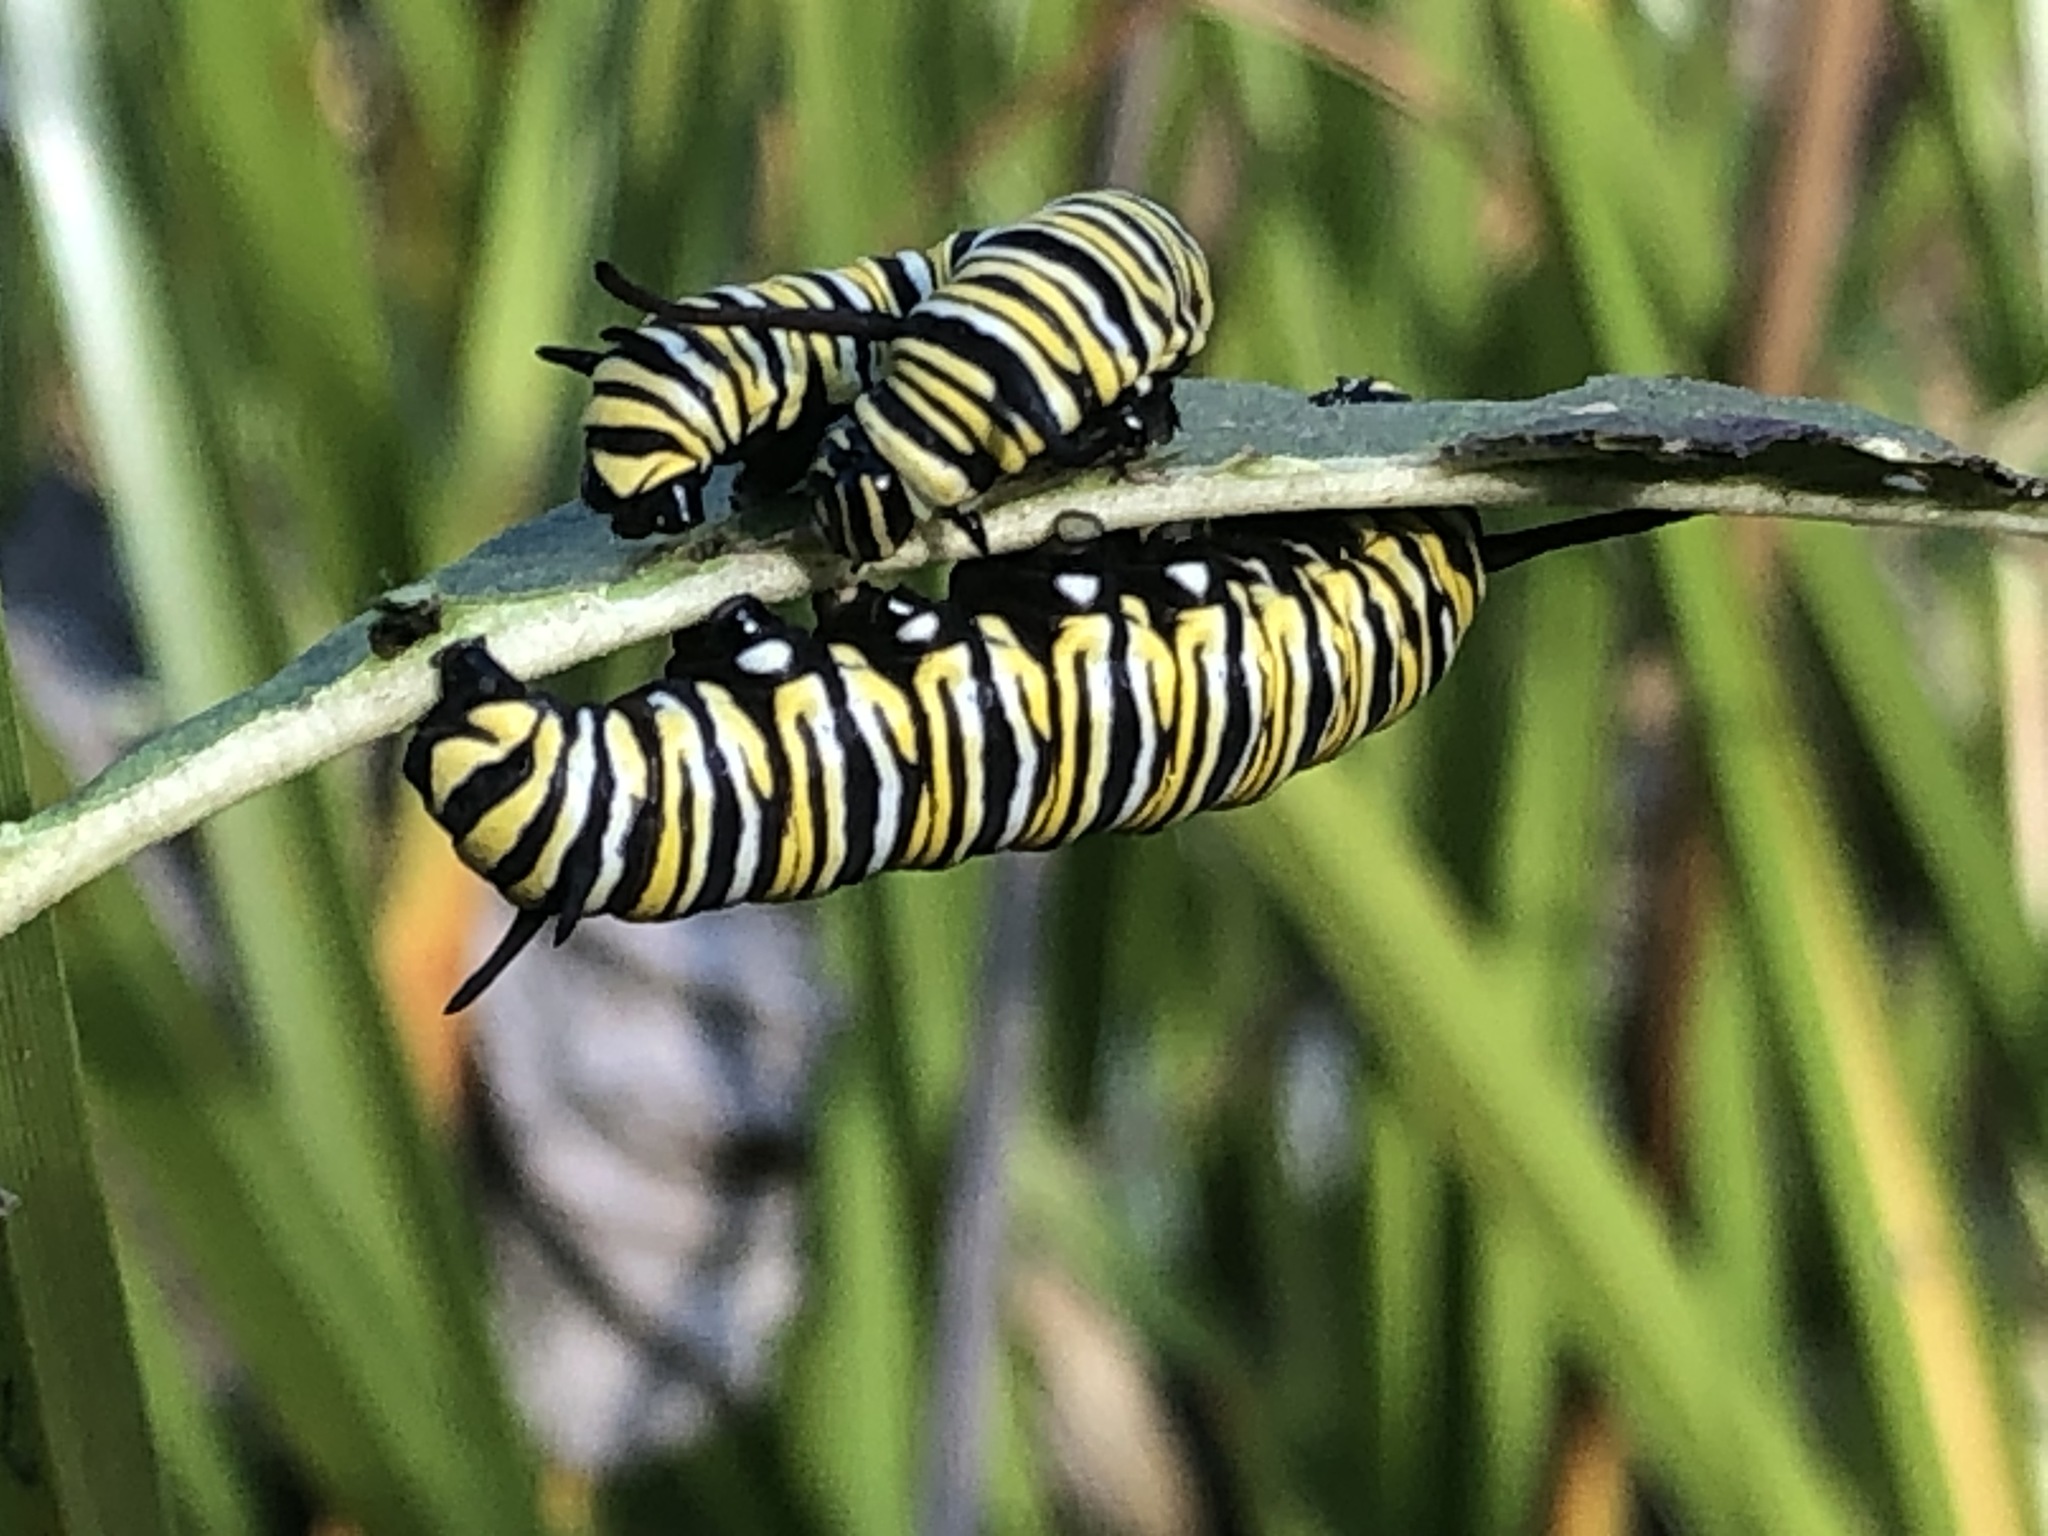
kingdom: Animalia
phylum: Arthropoda
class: Insecta
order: Lepidoptera
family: Nymphalidae
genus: Danaus
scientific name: Danaus plexippus
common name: Monarch
